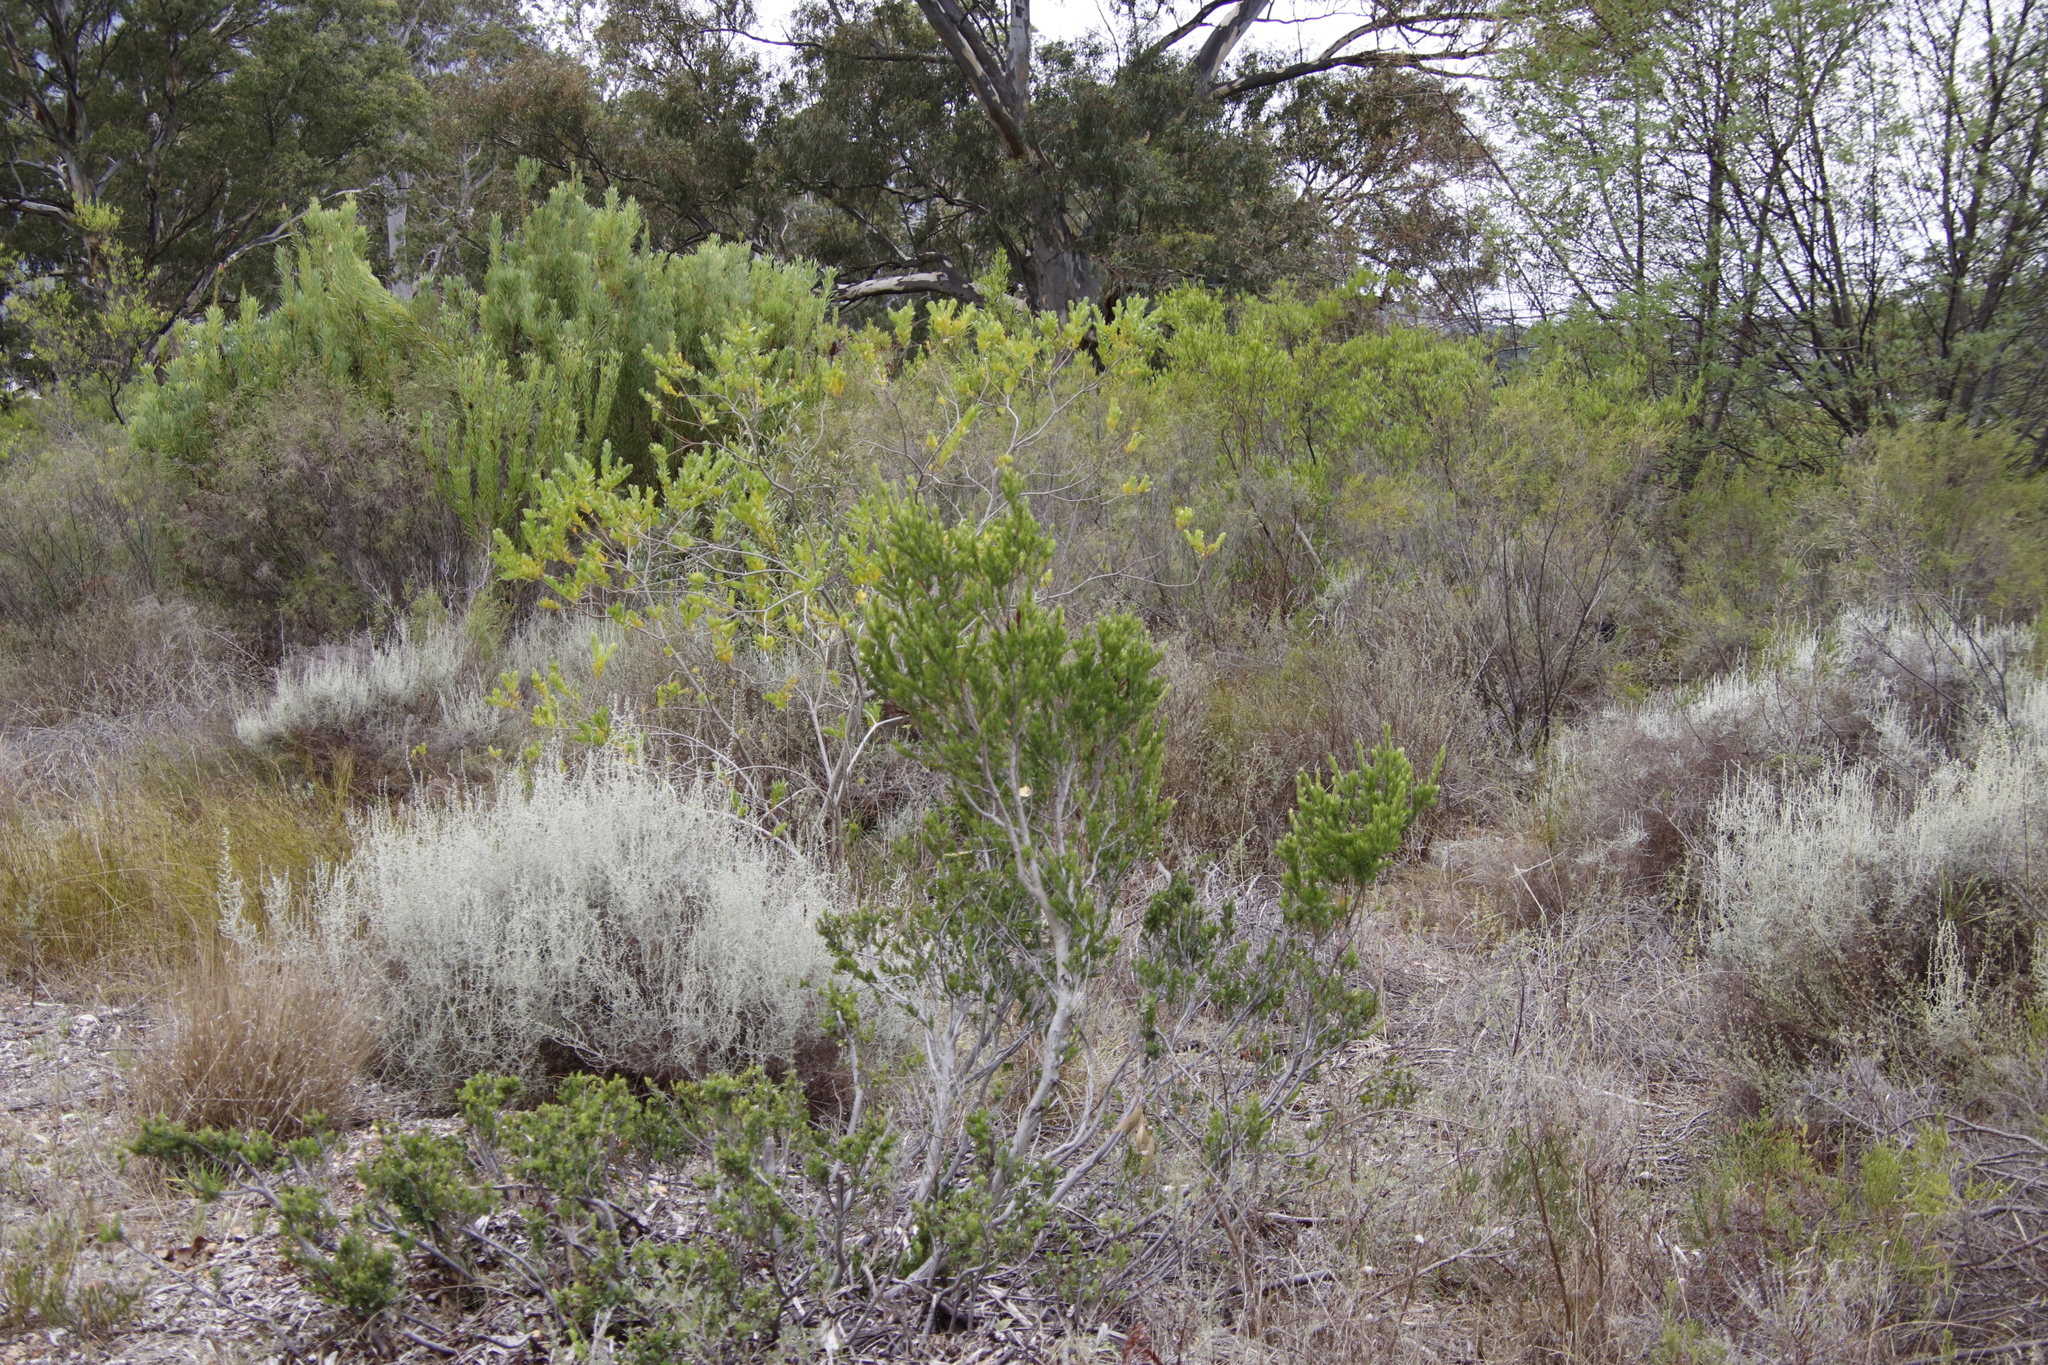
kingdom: Plantae
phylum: Tracheophyta
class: Magnoliopsida
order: Ericales
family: Ebenaceae
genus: Diospyros
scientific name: Diospyros glabra
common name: Fynbos star apple
